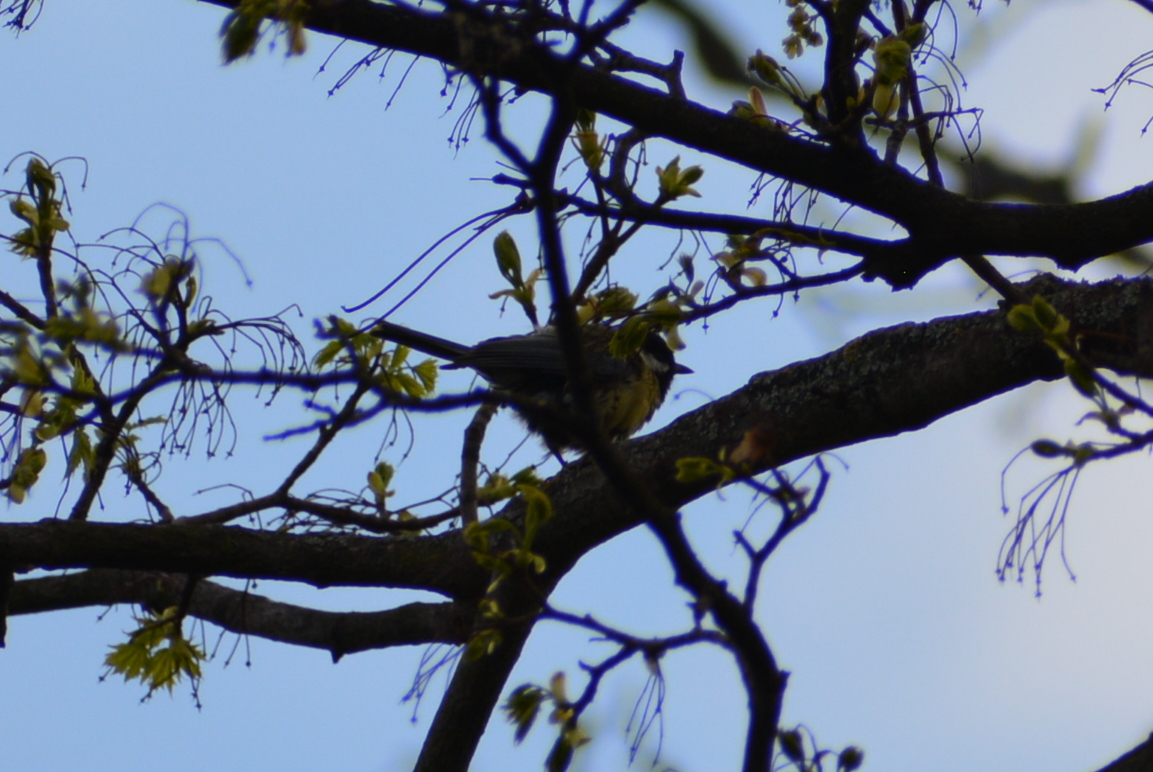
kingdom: Animalia
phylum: Chordata
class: Aves
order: Passeriformes
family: Paridae
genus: Parus
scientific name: Parus major
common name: Great tit
